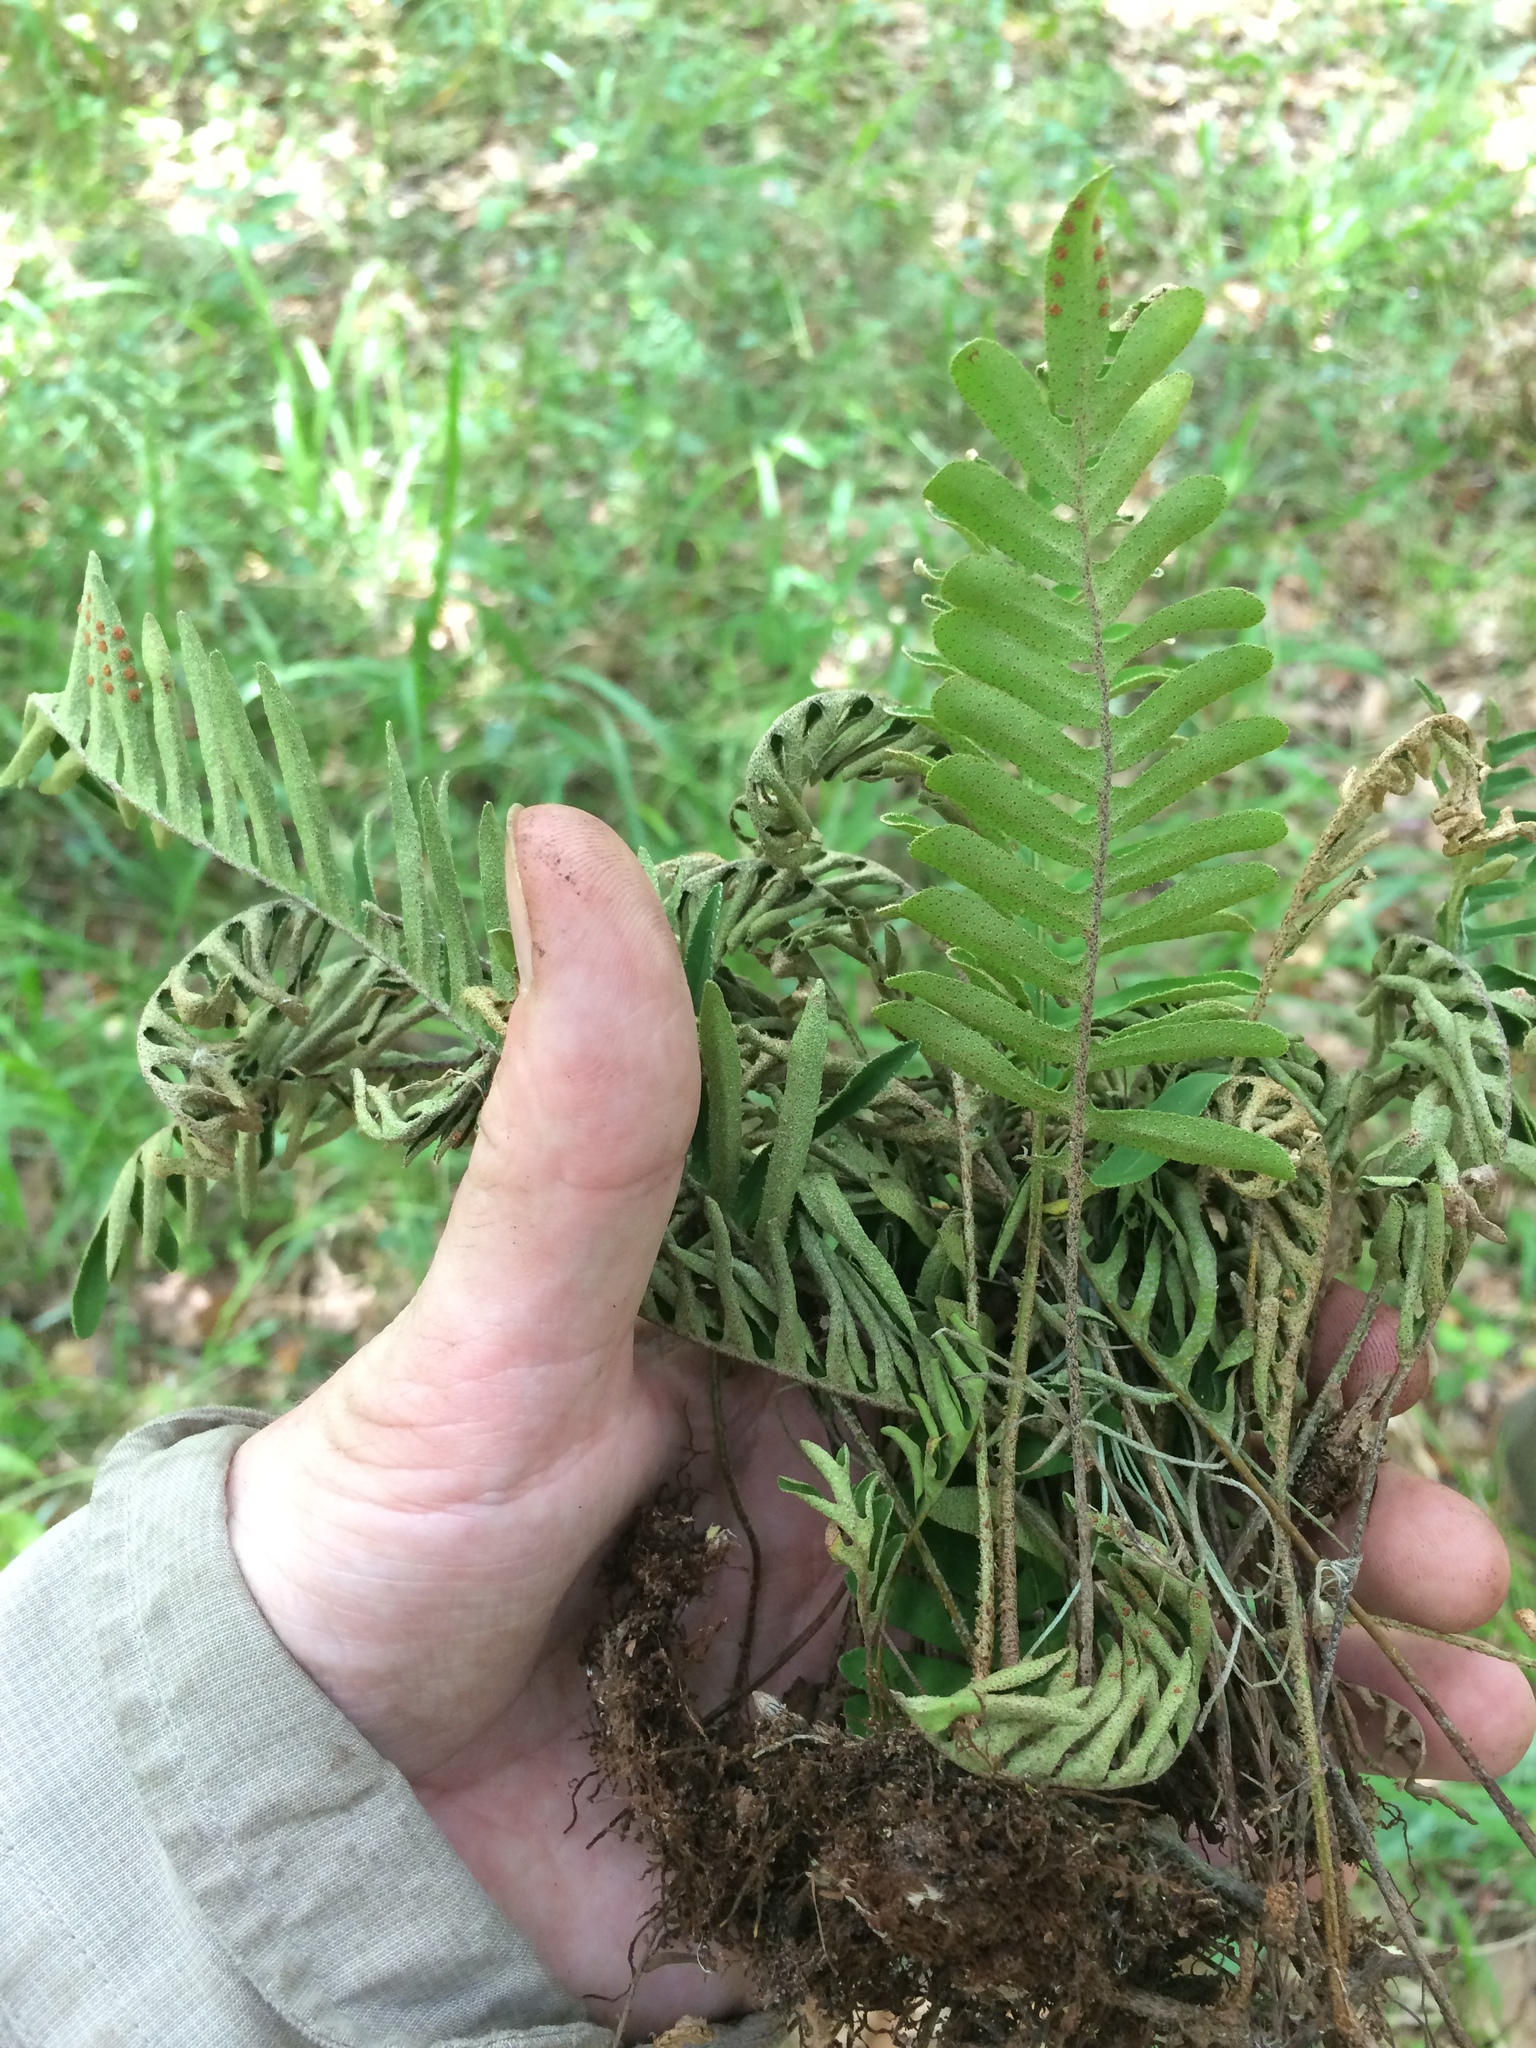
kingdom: Plantae
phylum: Tracheophyta
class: Polypodiopsida
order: Polypodiales
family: Polypodiaceae
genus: Pleopeltis
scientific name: Pleopeltis michauxiana
